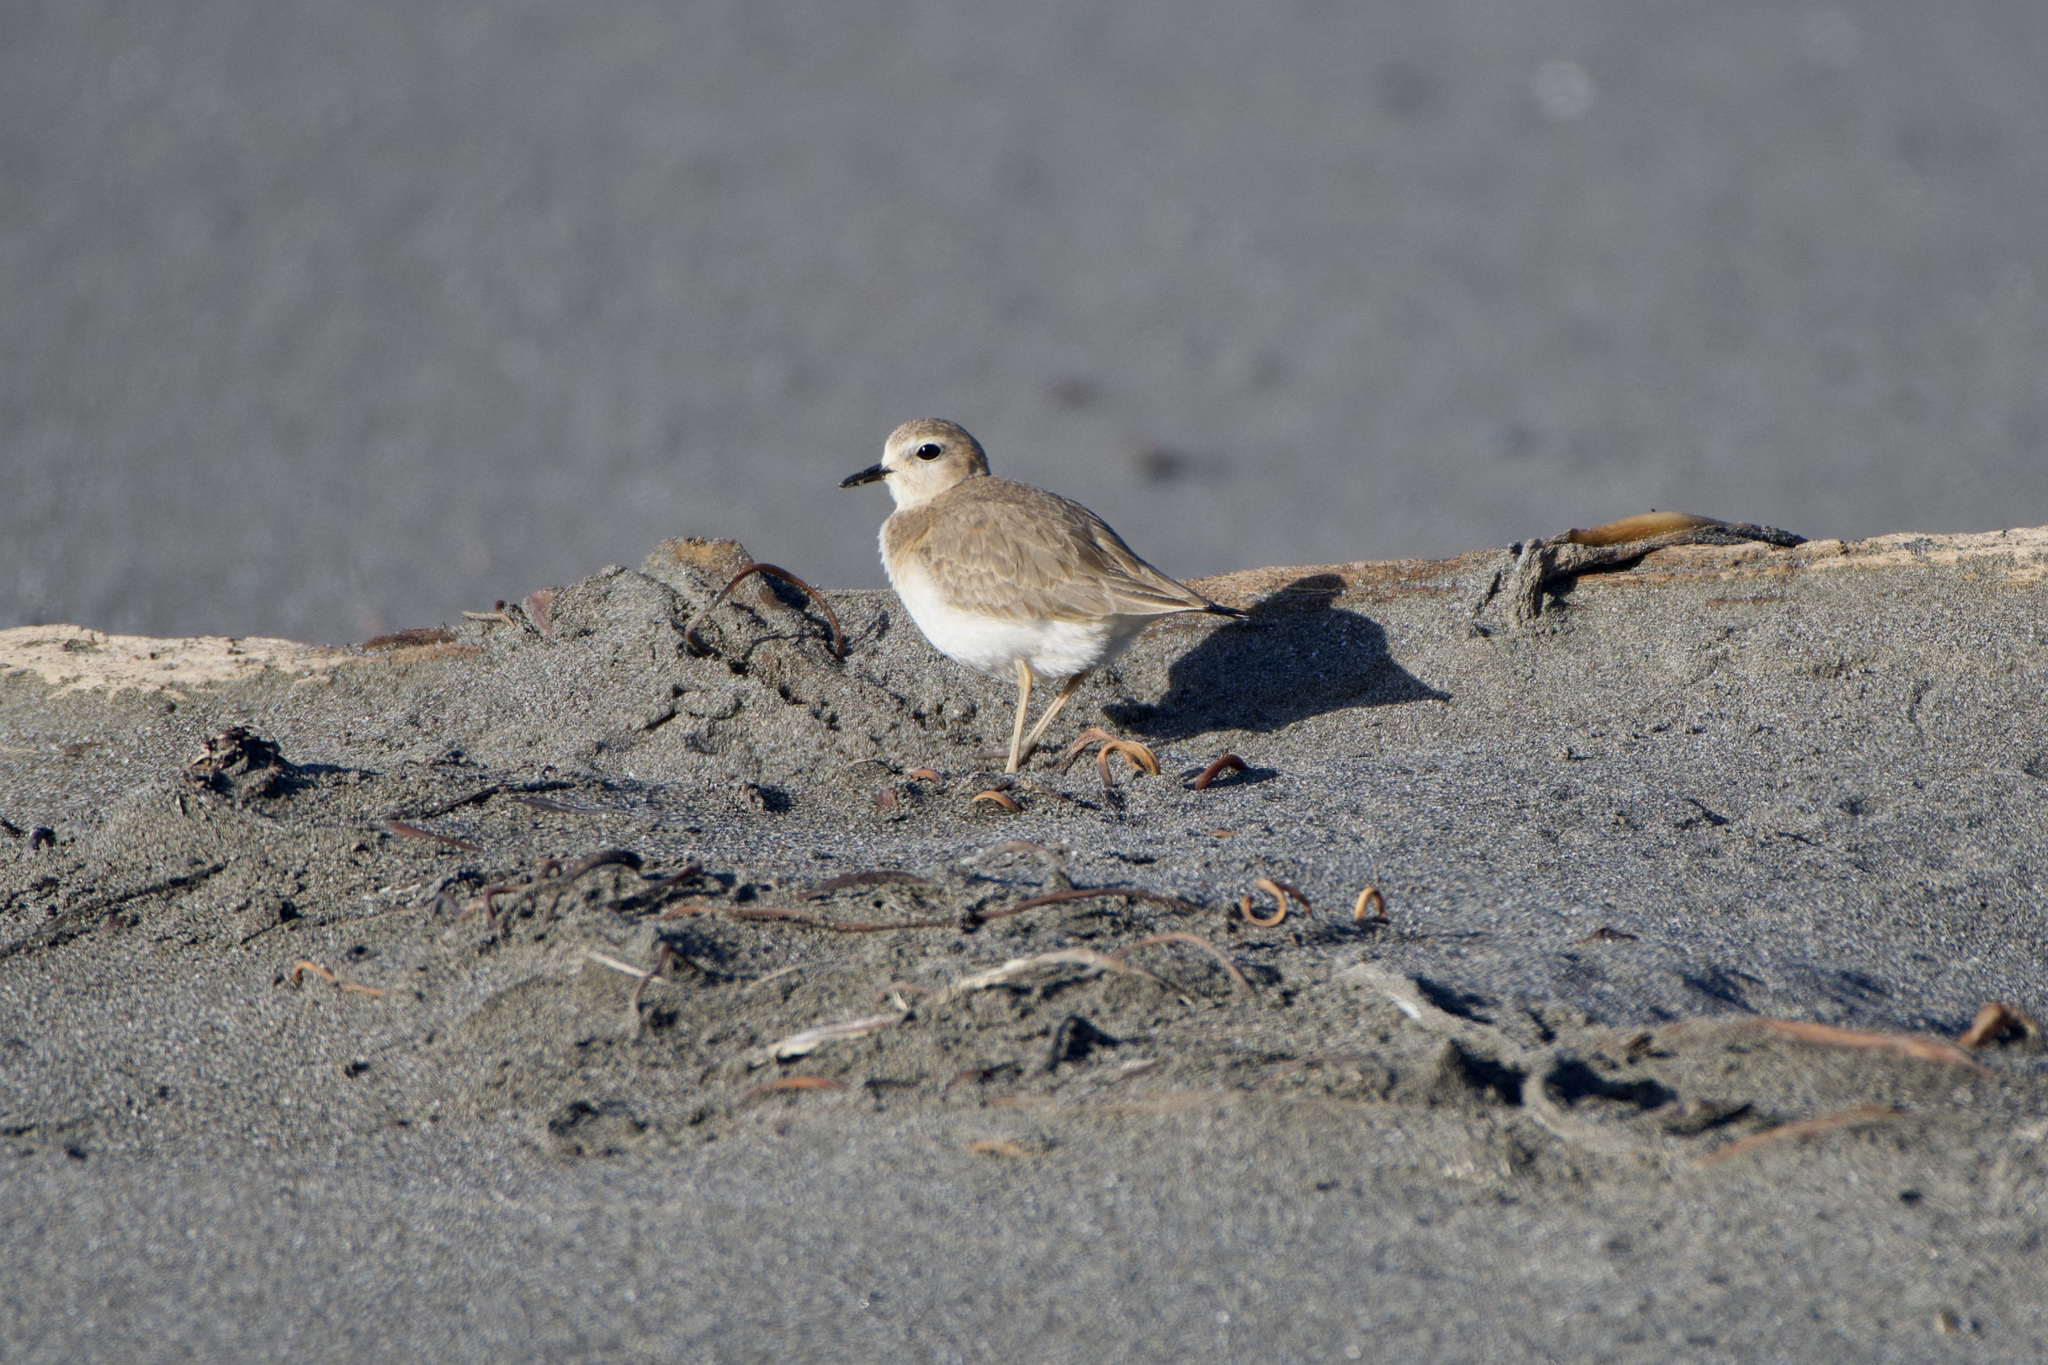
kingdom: Animalia
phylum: Chordata
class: Aves
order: Charadriiformes
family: Charadriidae
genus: Anarhynchus
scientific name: Anarhynchus
